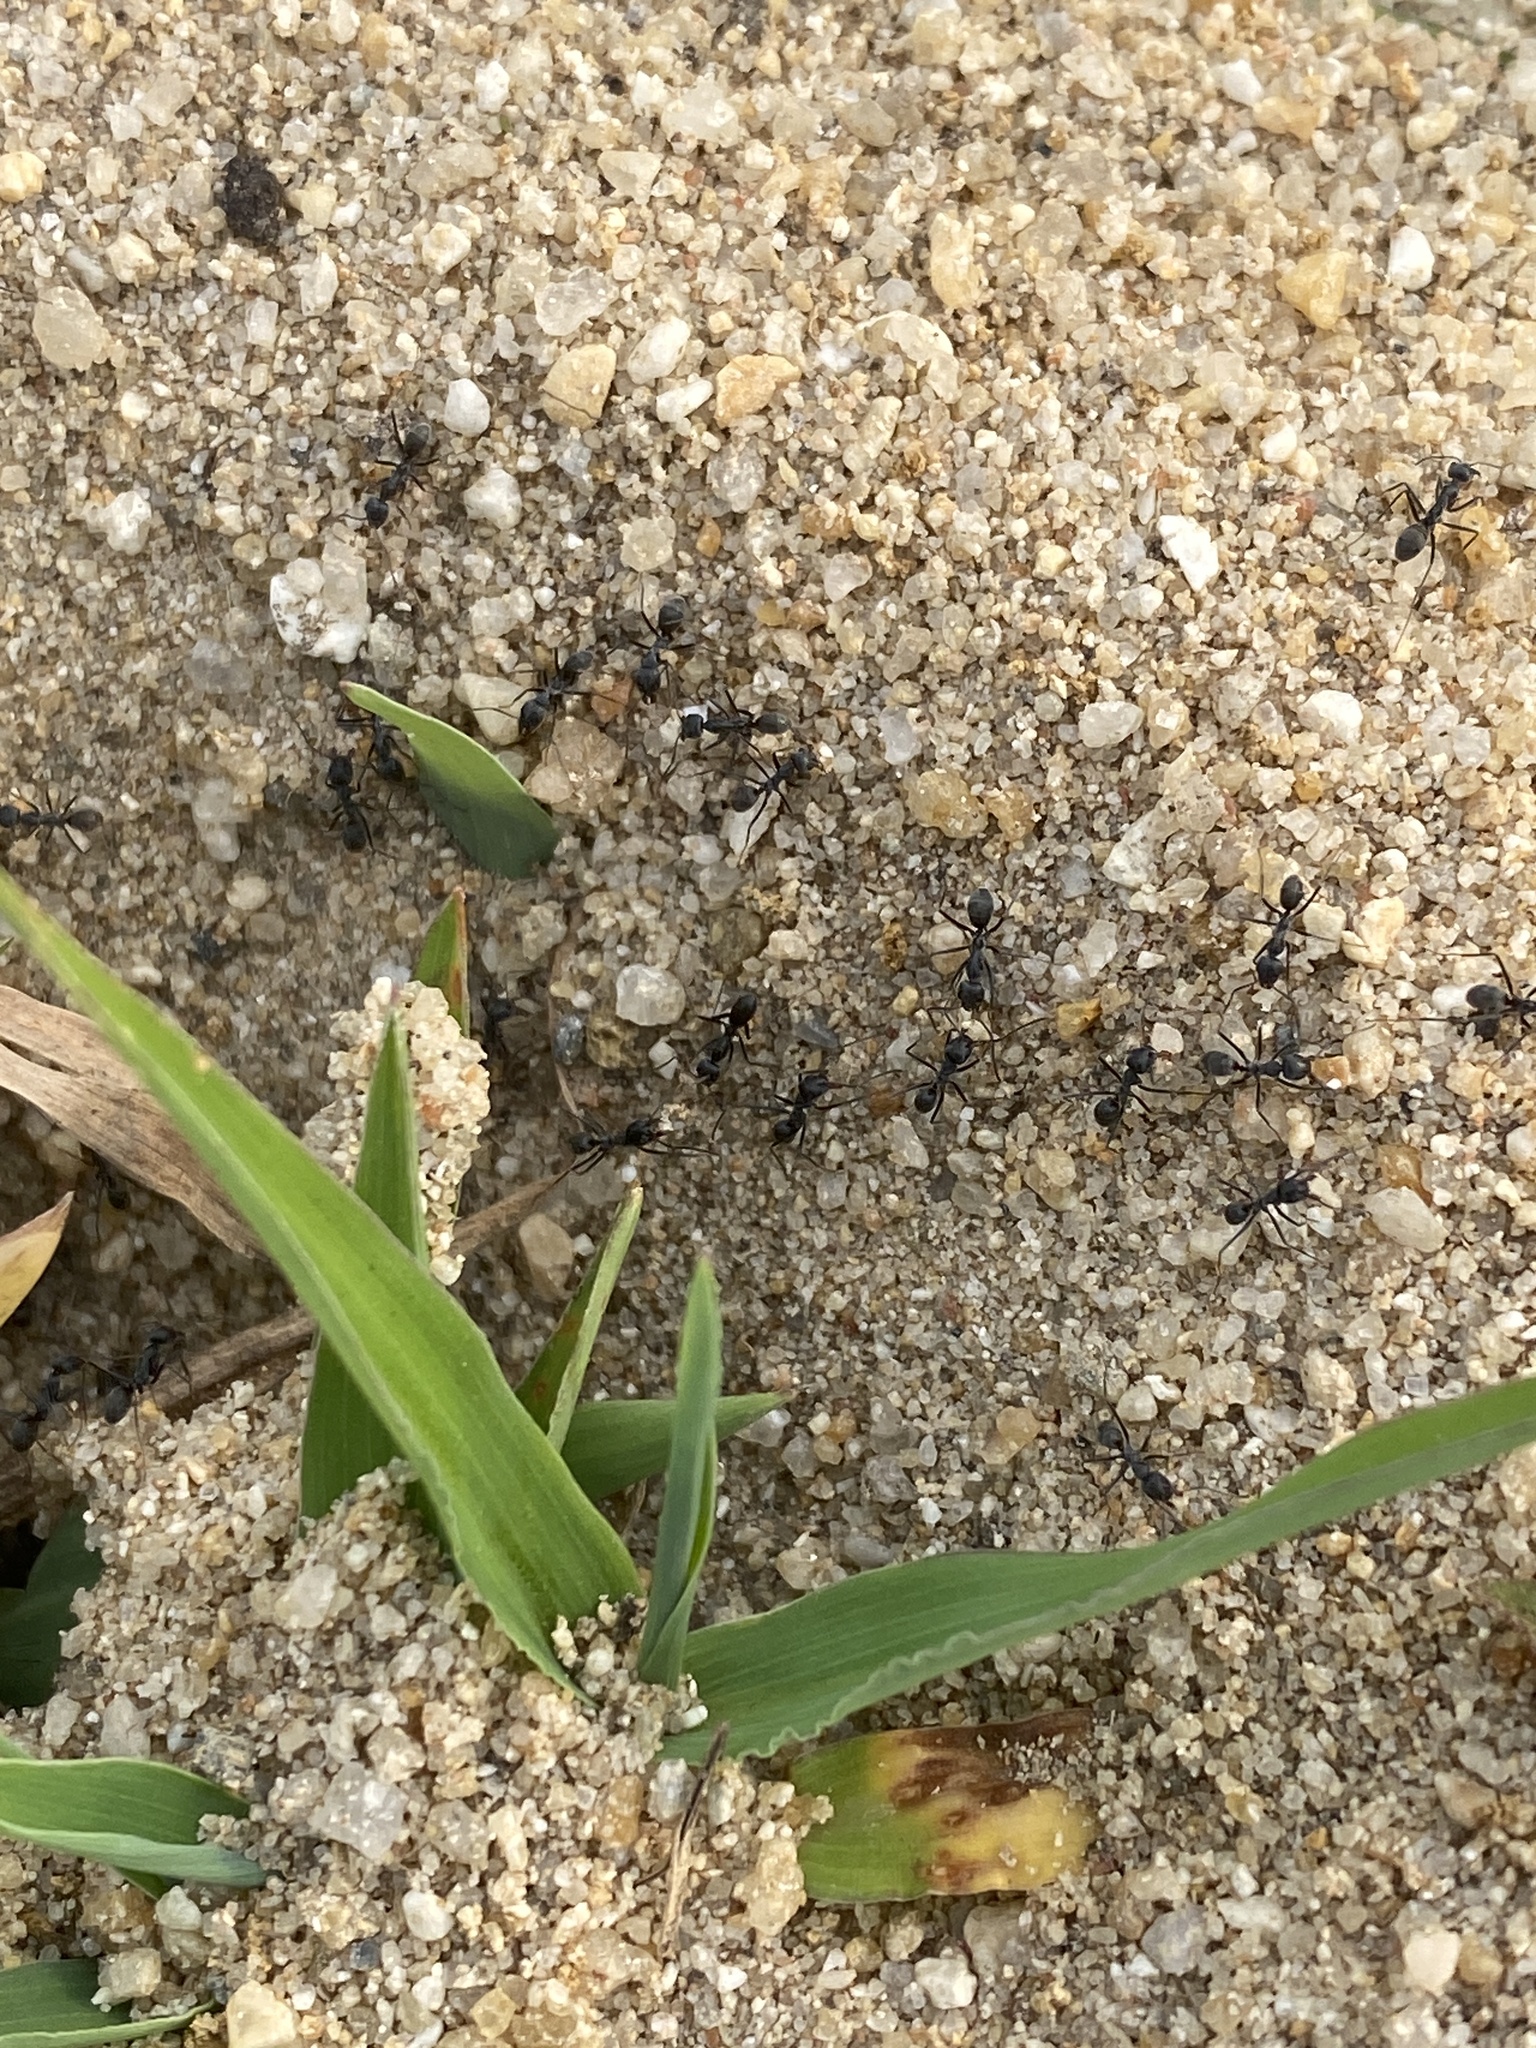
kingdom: Animalia
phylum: Arthropoda
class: Insecta
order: Hymenoptera
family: Formicidae
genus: Iridomyrmex
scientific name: Iridomyrmex anceps
